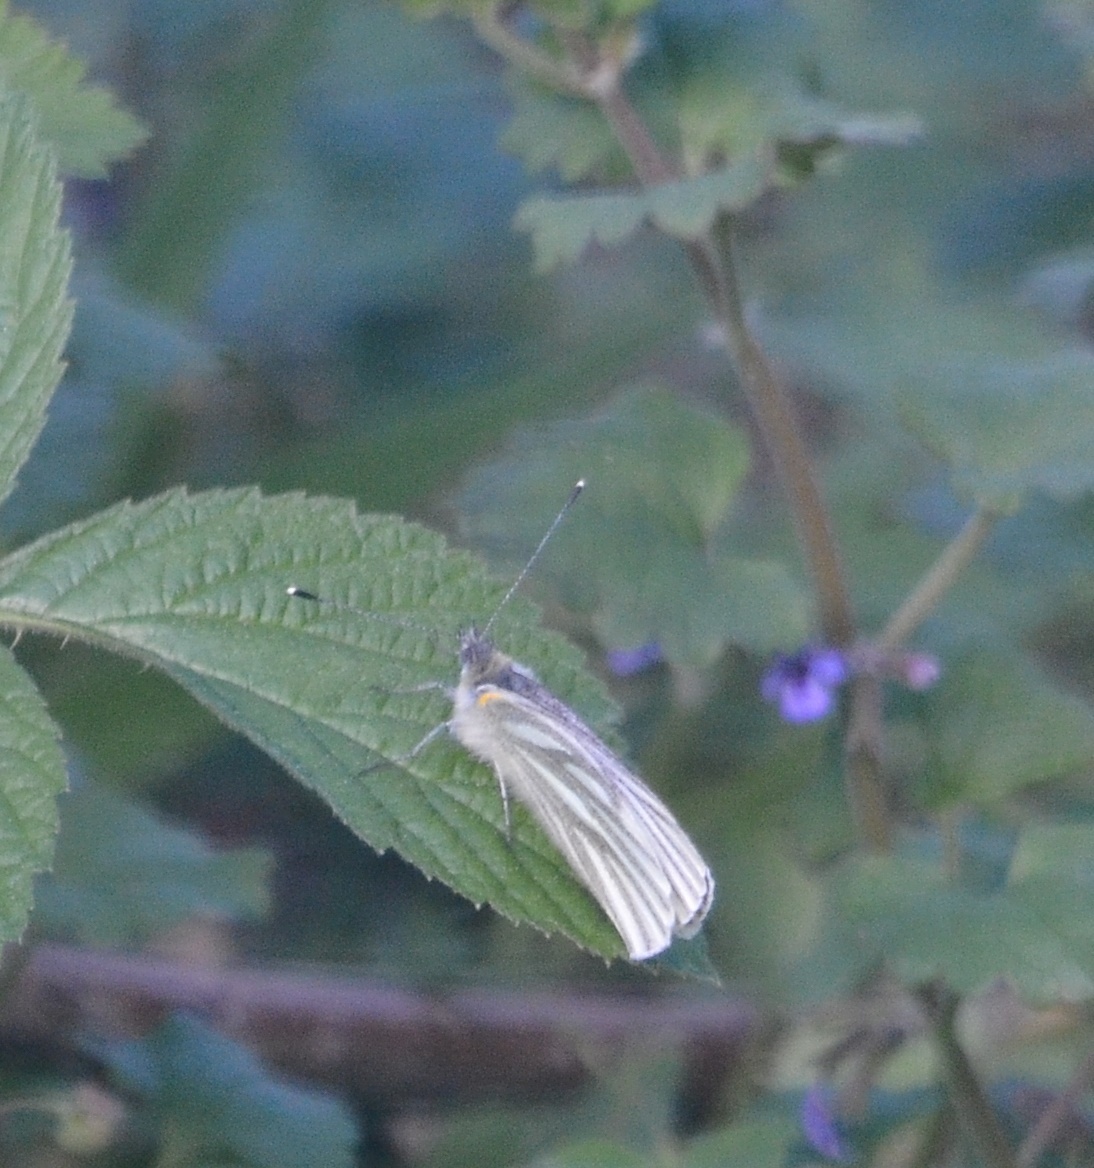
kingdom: Animalia
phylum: Arthropoda
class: Insecta
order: Lepidoptera
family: Pieridae
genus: Pieris
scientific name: Pieris napi
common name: Green-veined white
